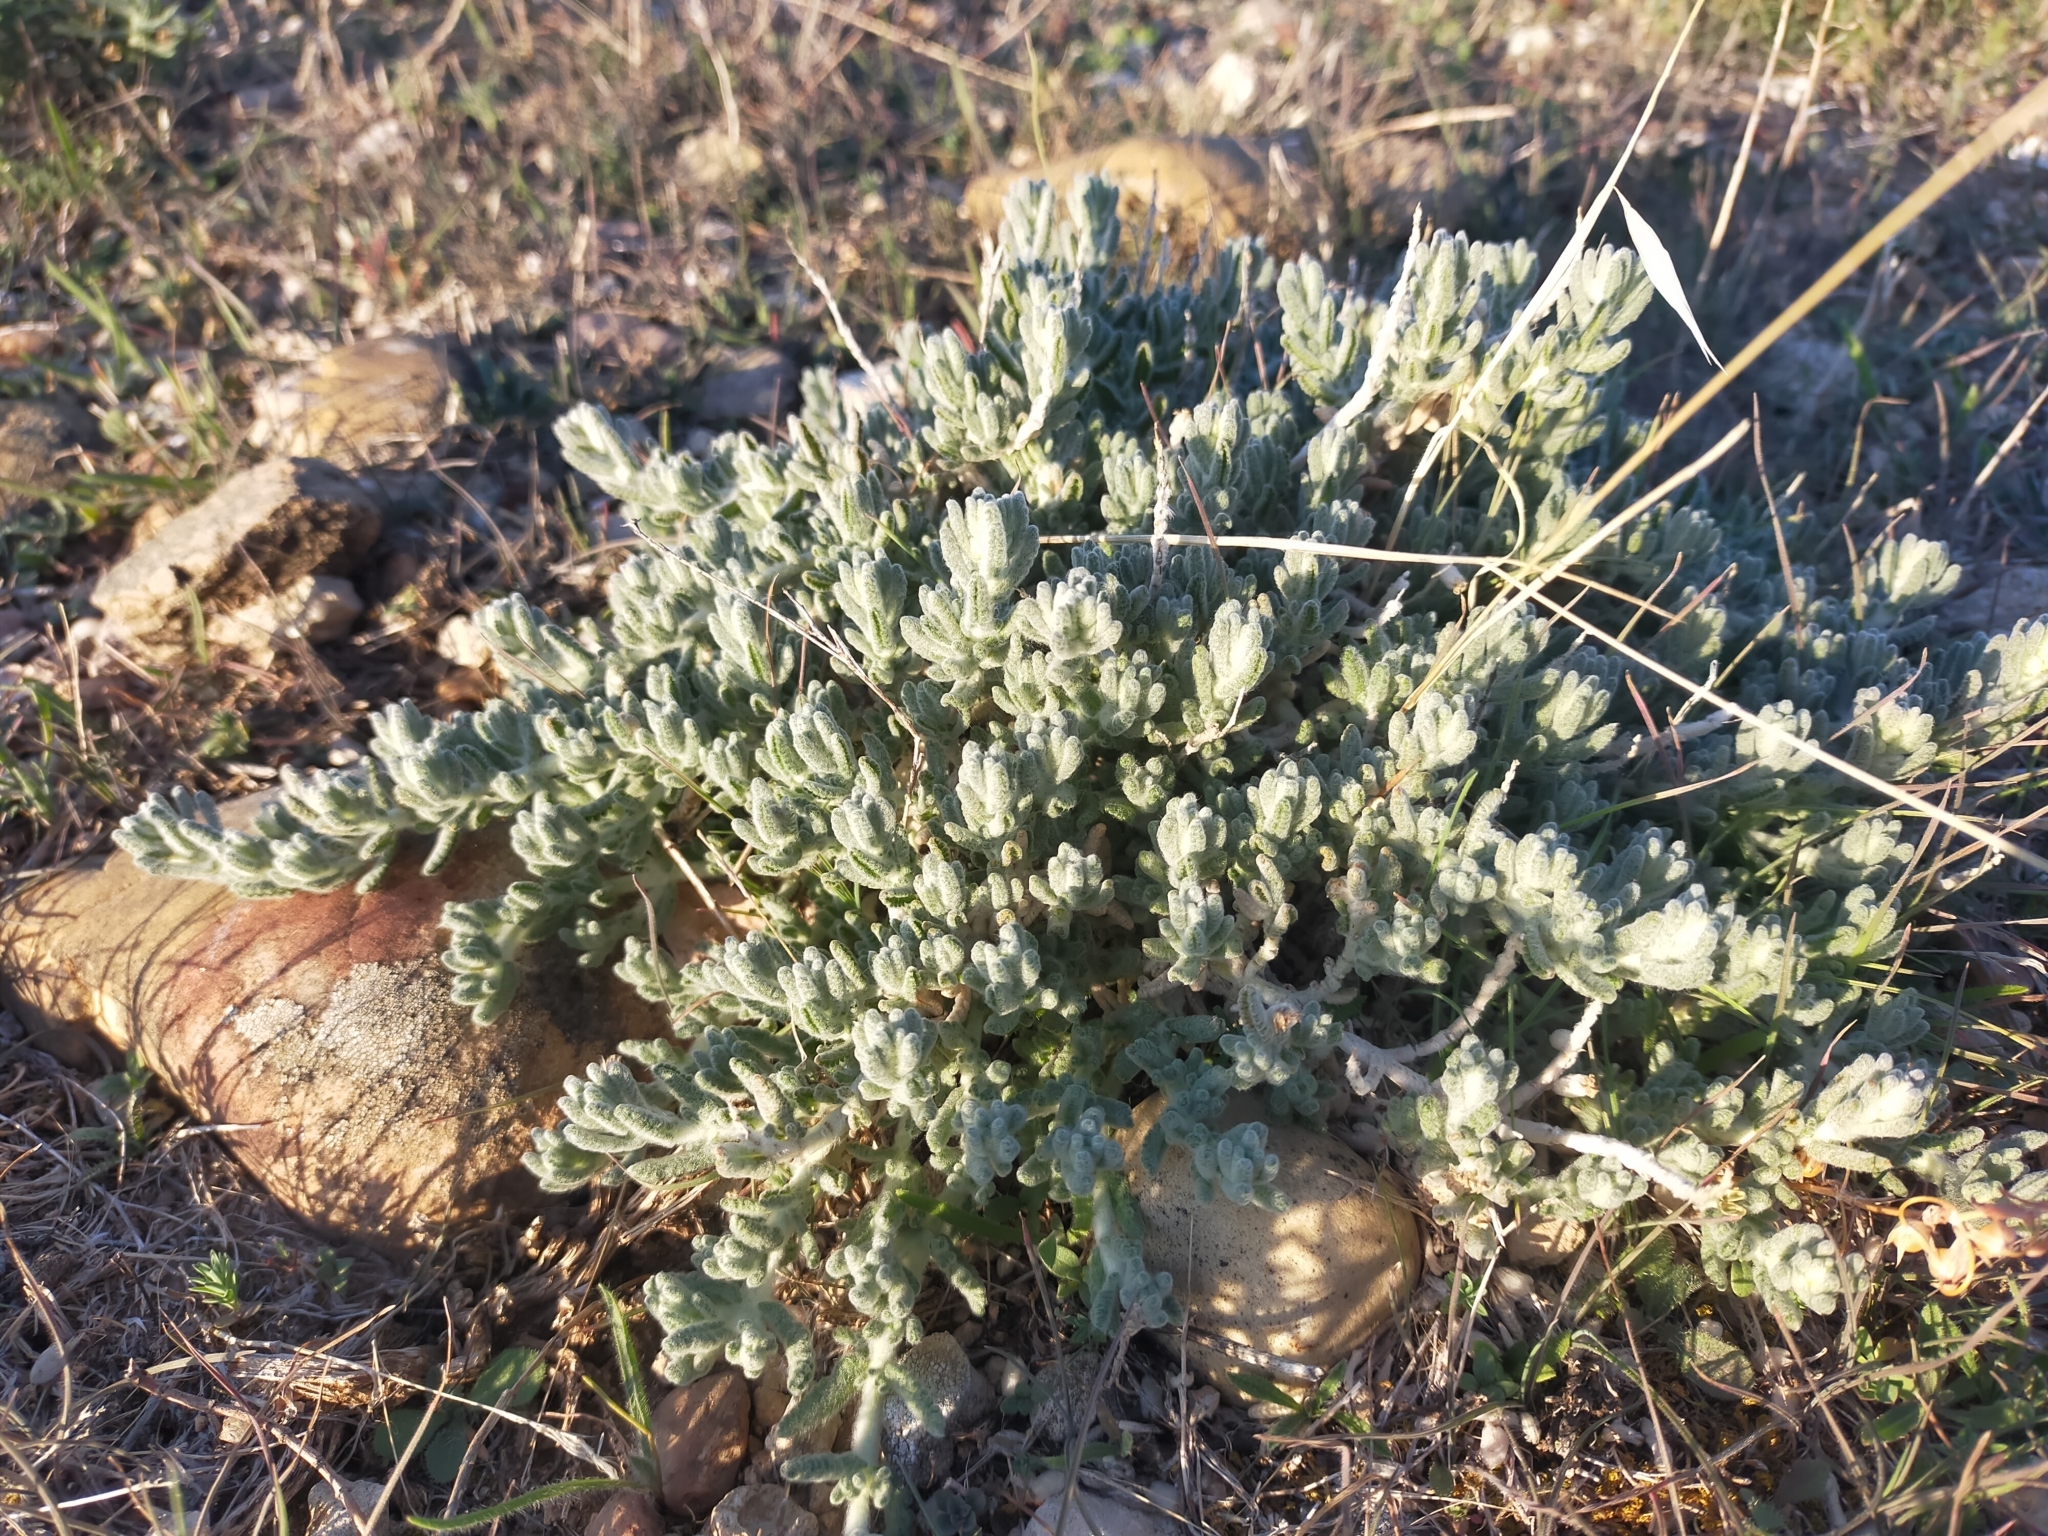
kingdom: Plantae
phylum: Tracheophyta
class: Magnoliopsida
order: Lamiales
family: Lamiaceae
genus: Teucrium
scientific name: Teucrium gnaphalodes
